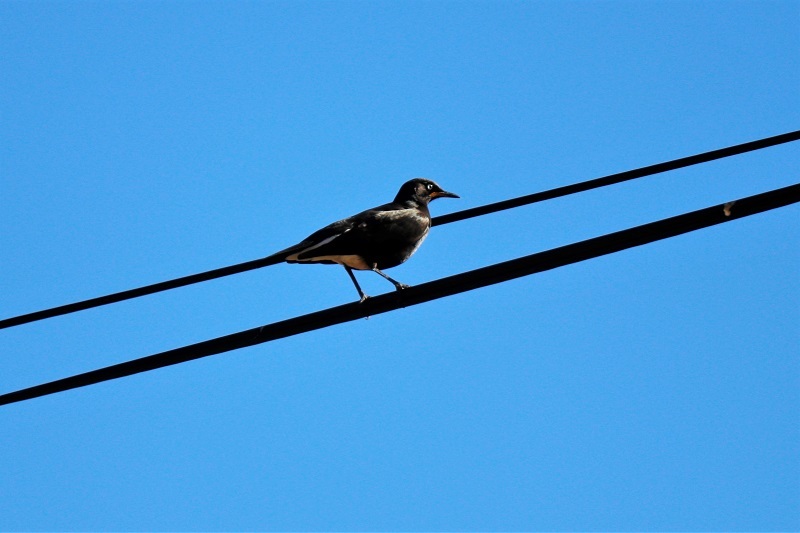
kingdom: Animalia
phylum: Chordata
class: Aves
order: Passeriformes
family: Sturnidae
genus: Lamprotornis
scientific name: Lamprotornis bicolor
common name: Pied starling
